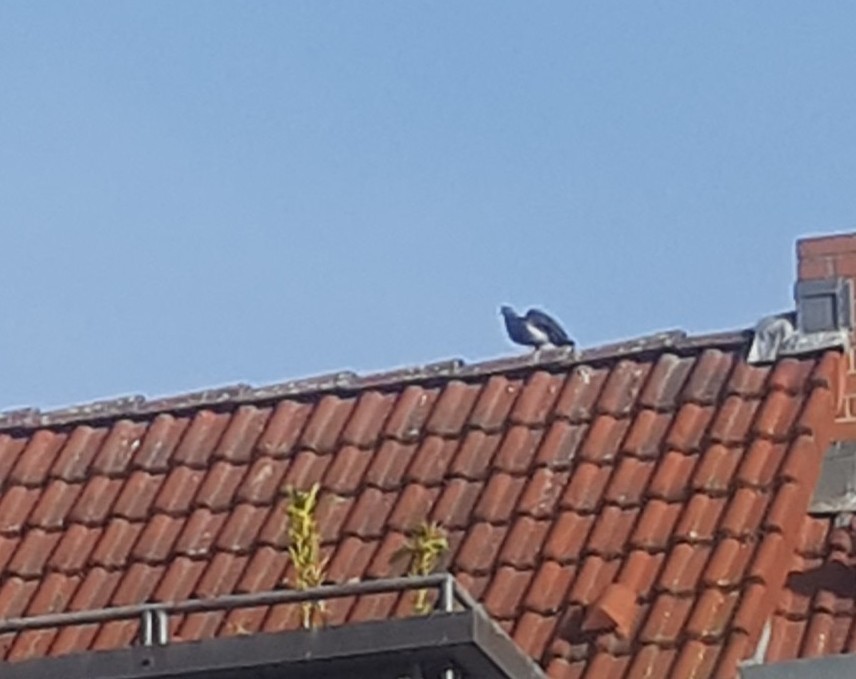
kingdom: Animalia
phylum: Chordata
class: Aves
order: Columbiformes
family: Columbidae
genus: Columba
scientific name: Columba livia
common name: Rock pigeon
